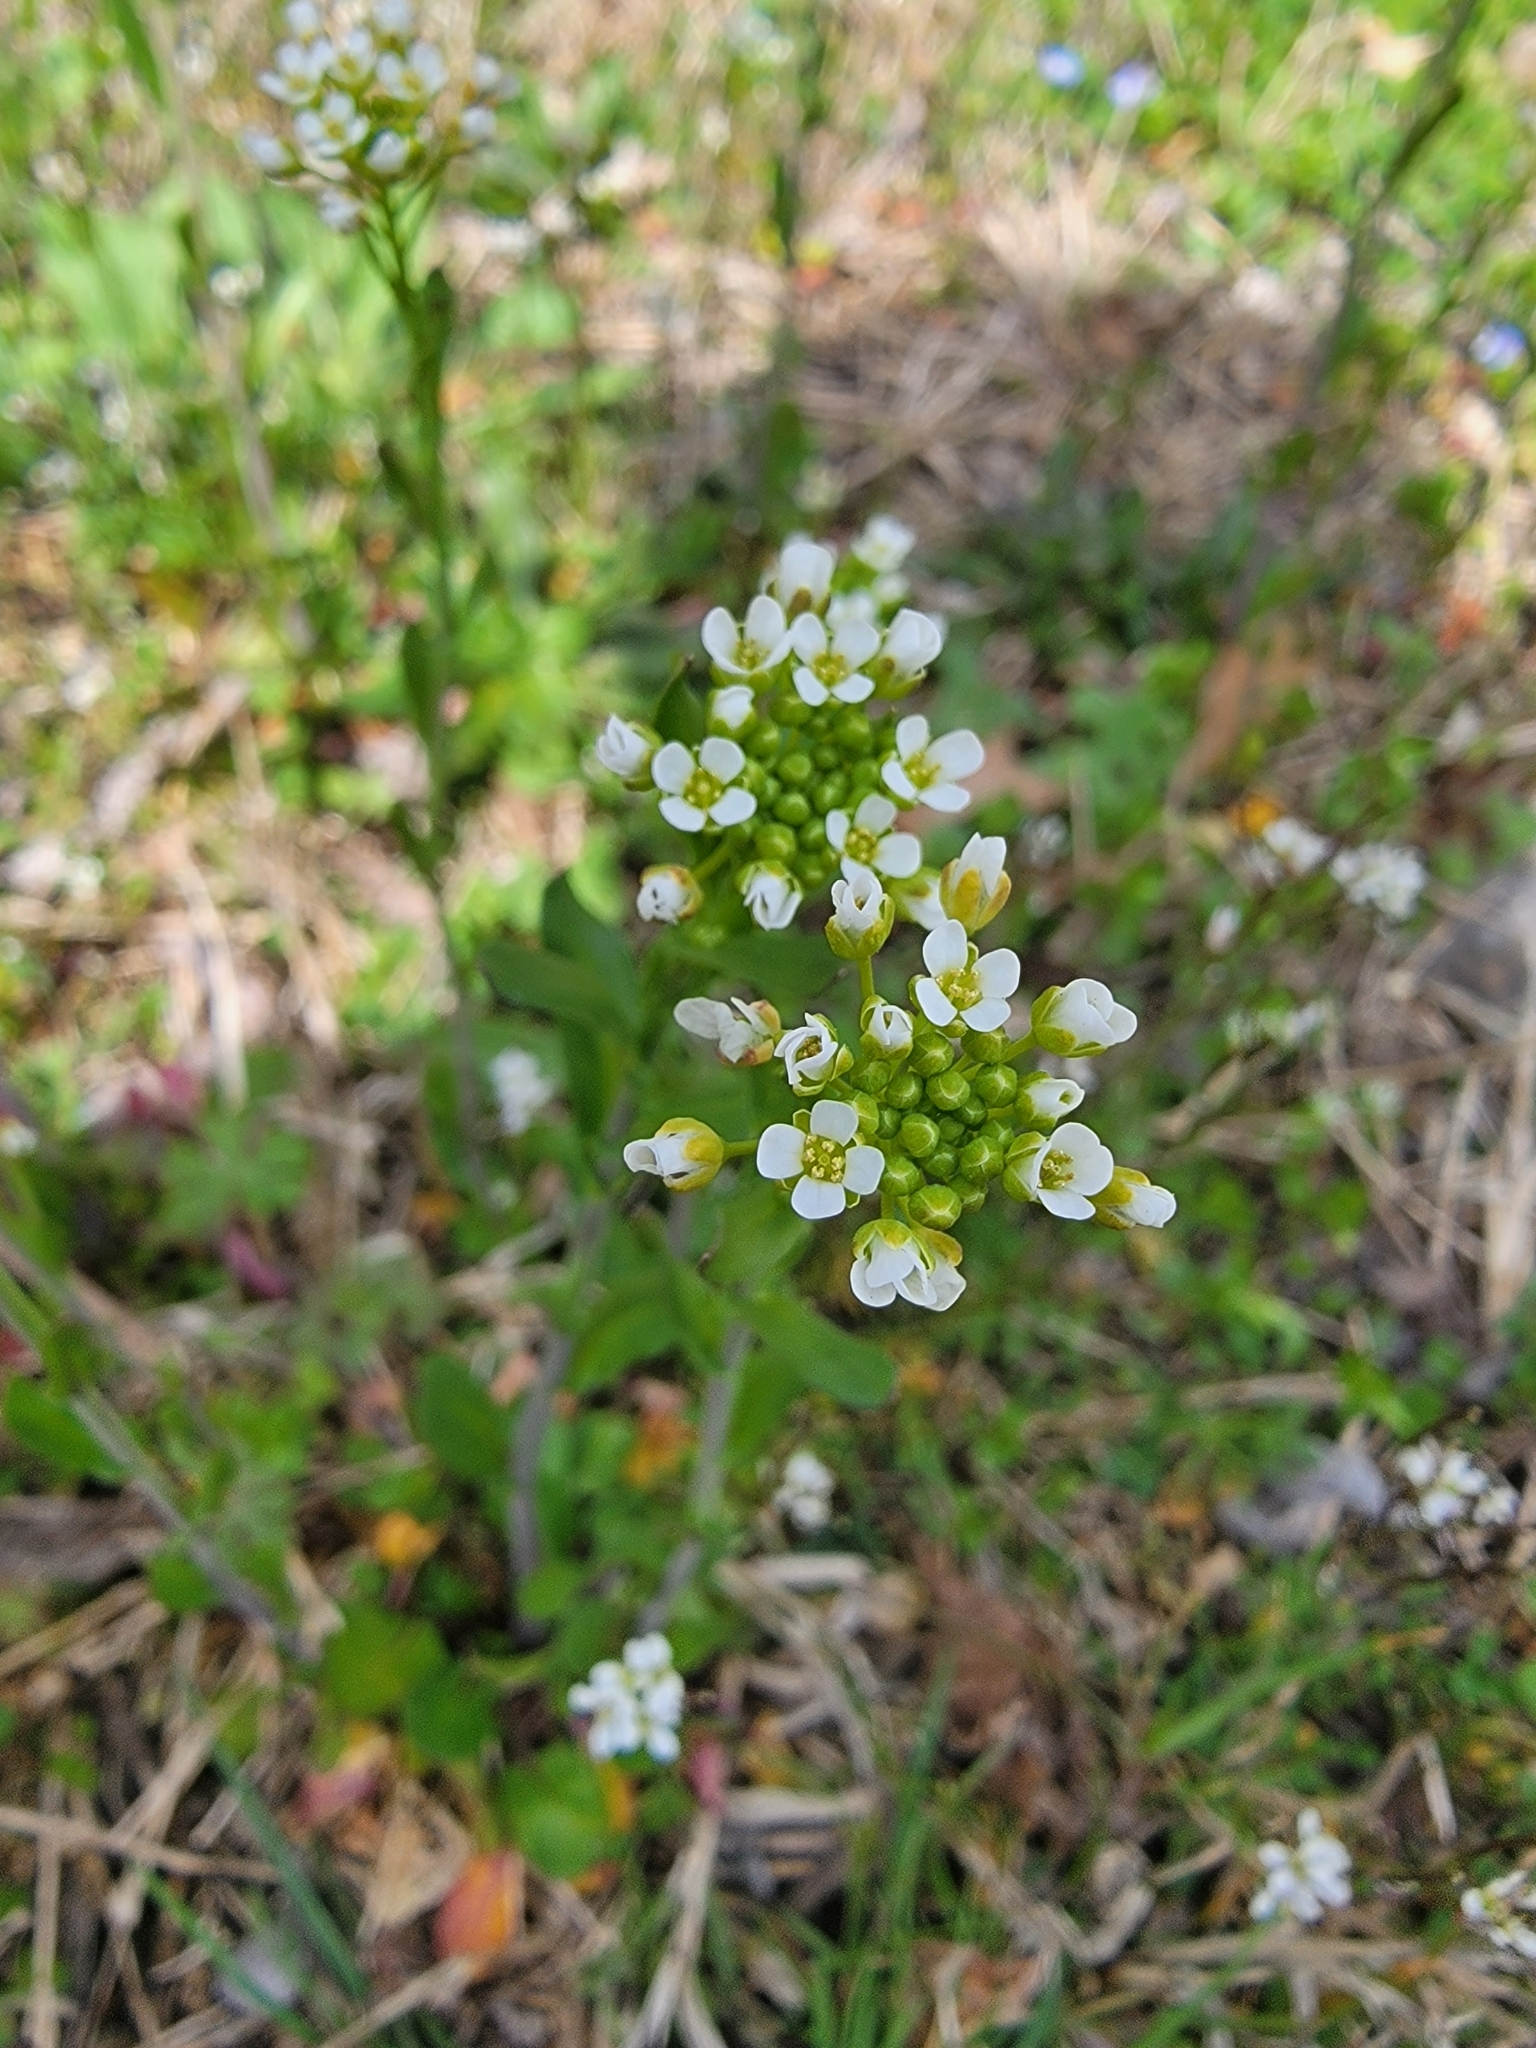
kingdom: Plantae
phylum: Tracheophyta
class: Magnoliopsida
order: Brassicales
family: Brassicaceae
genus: Mummenhoffia
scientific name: Mummenhoffia alliacea
